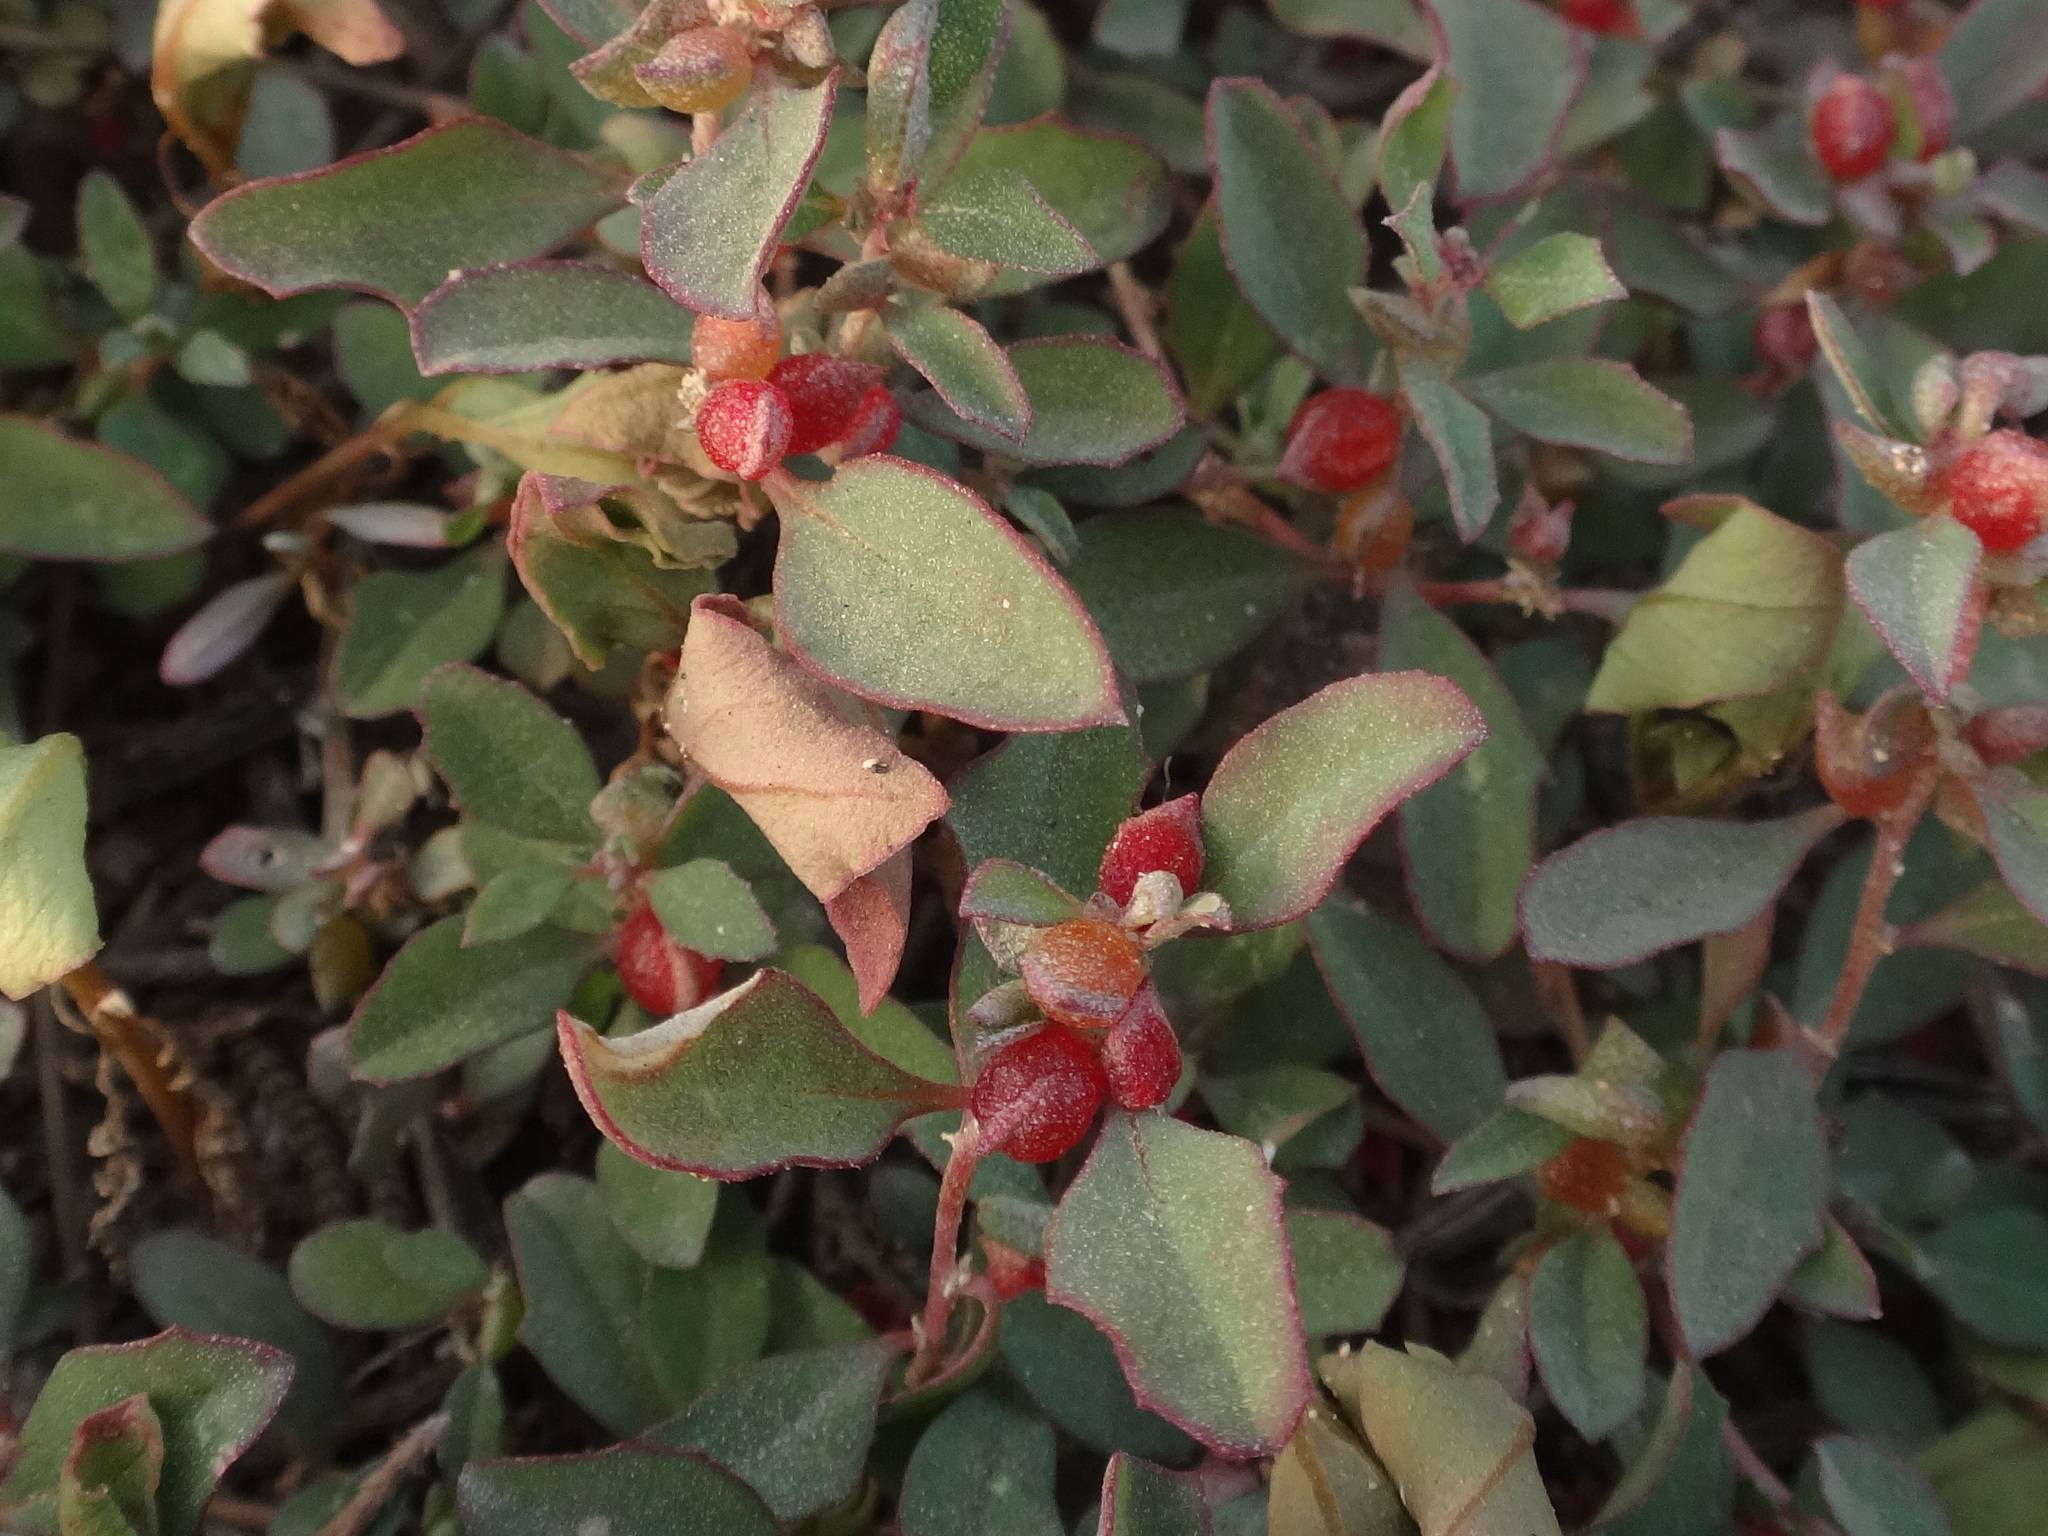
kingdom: Plantae
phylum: Tracheophyta
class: Magnoliopsida
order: Caryophyllales
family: Amaranthaceae
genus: Atriplex
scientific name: Atriplex semibaccata
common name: Australian saltbush
